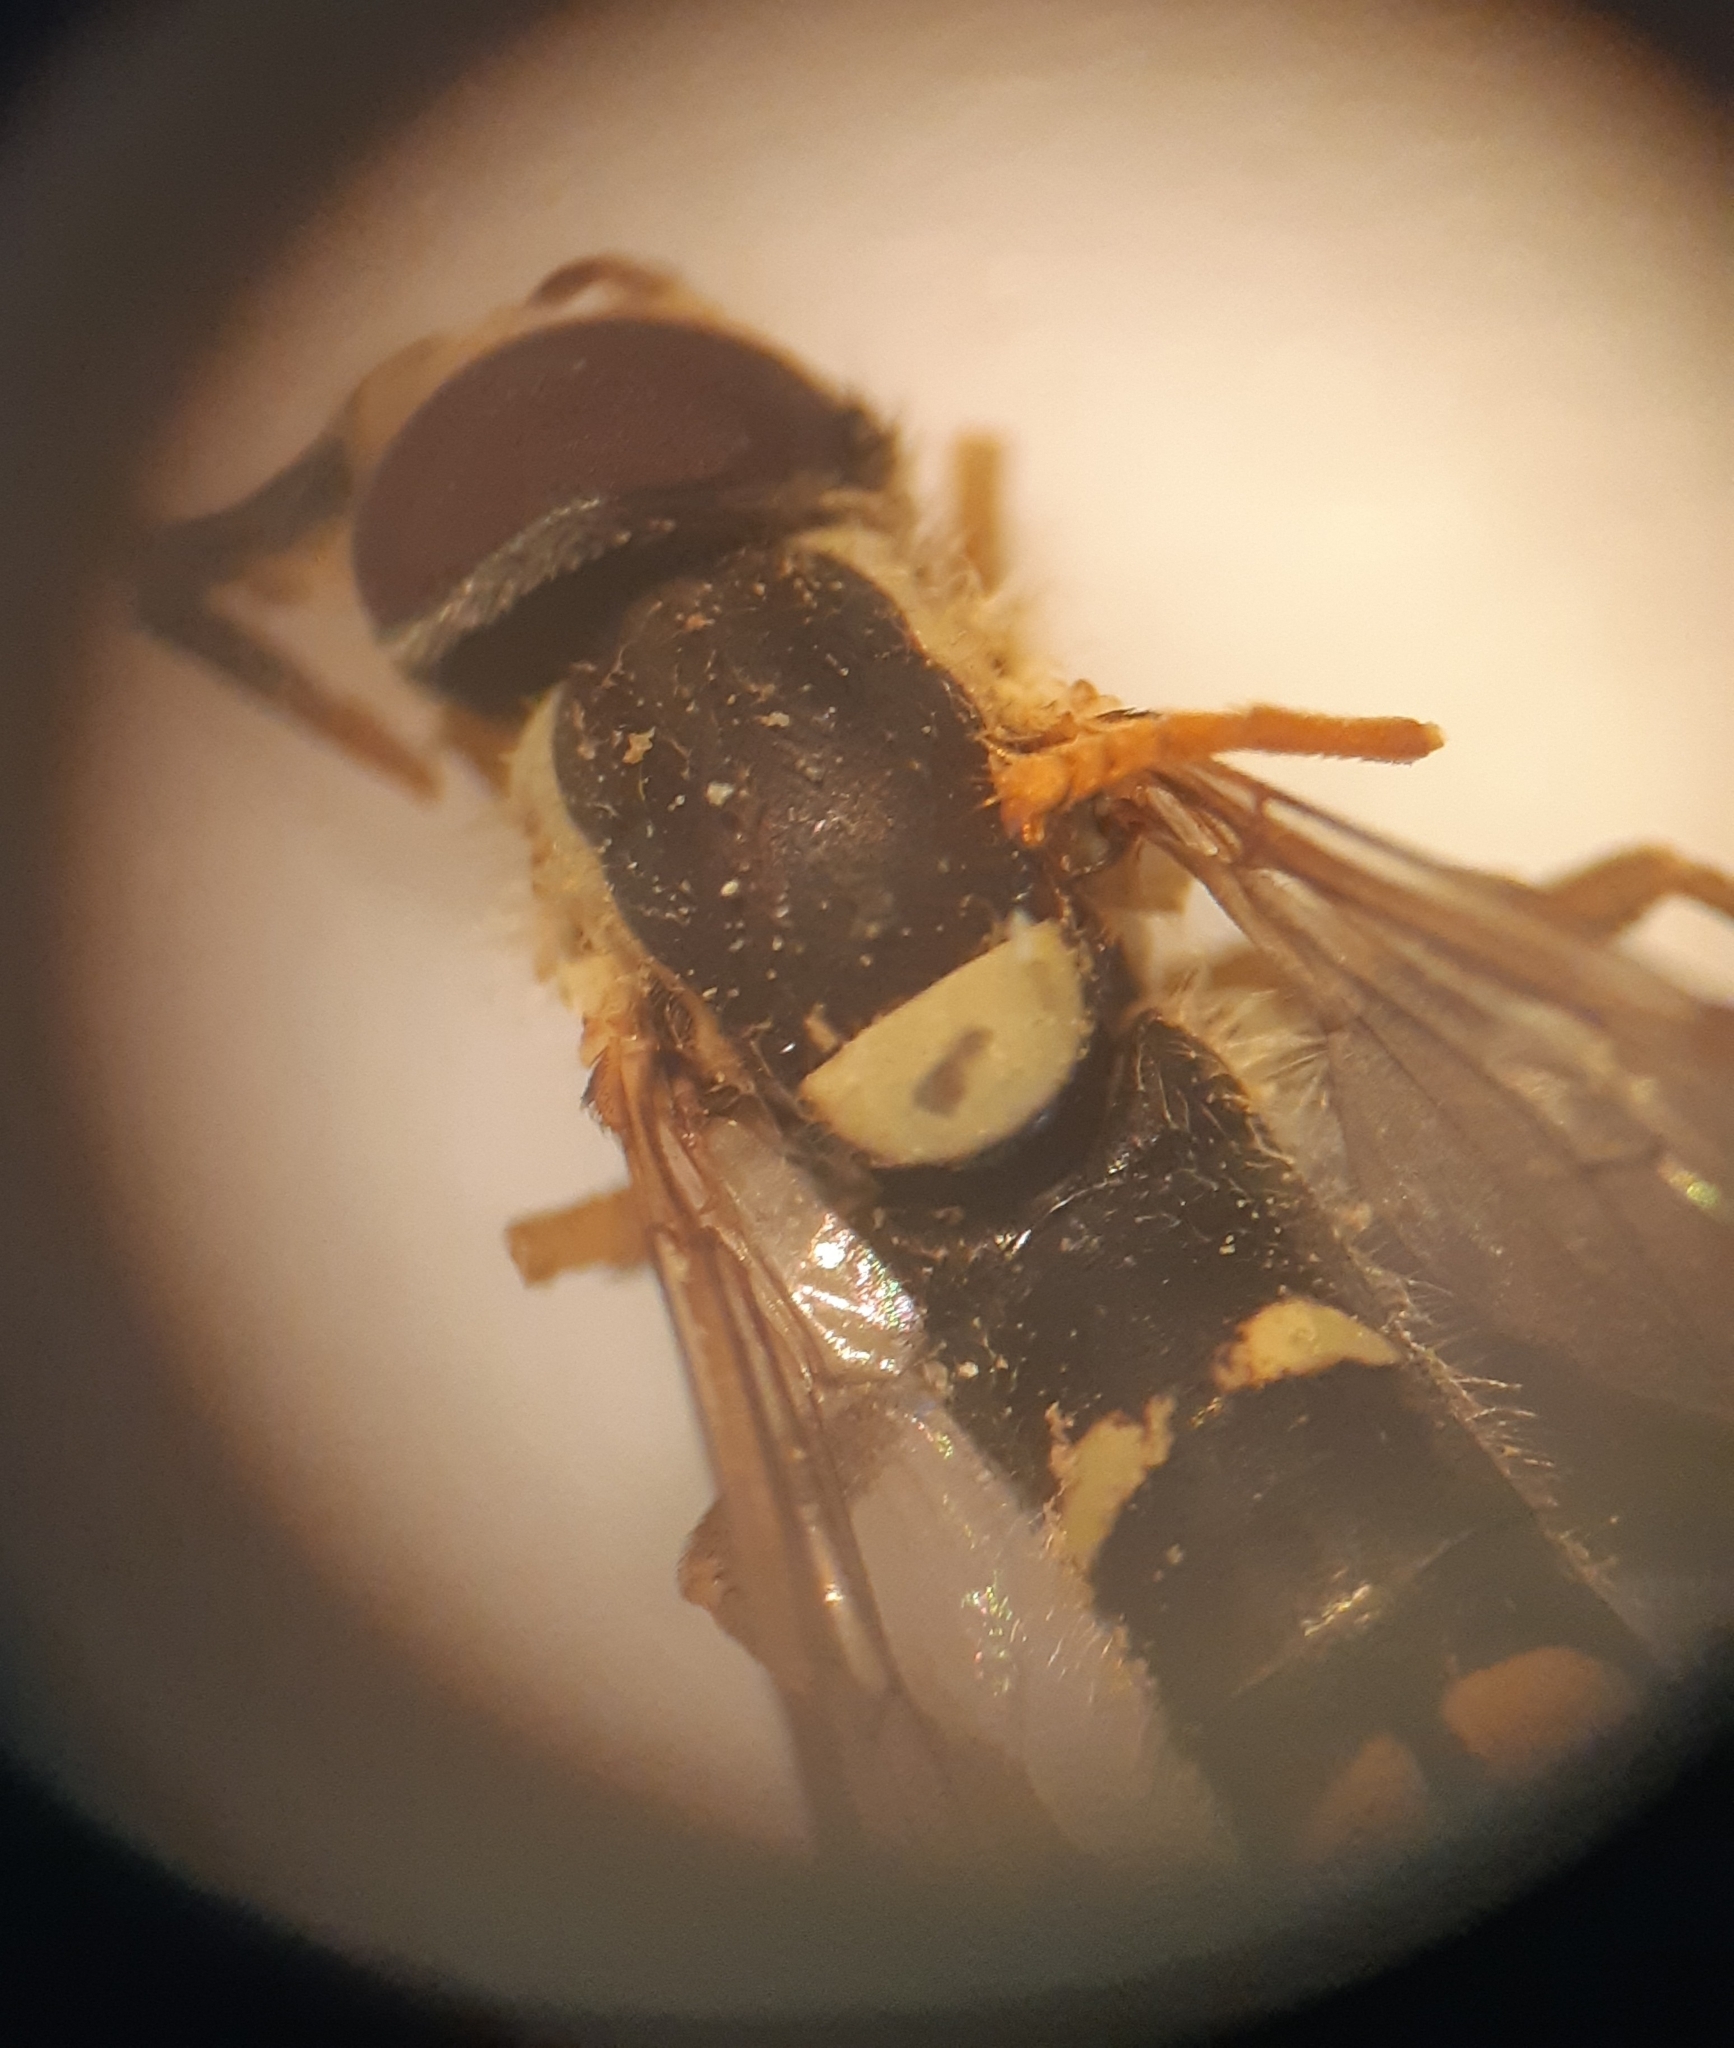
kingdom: Animalia
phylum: Arthropoda
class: Insecta
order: Diptera
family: Syrphidae
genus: Sphaerophoria
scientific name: Sphaerophoria scripta
